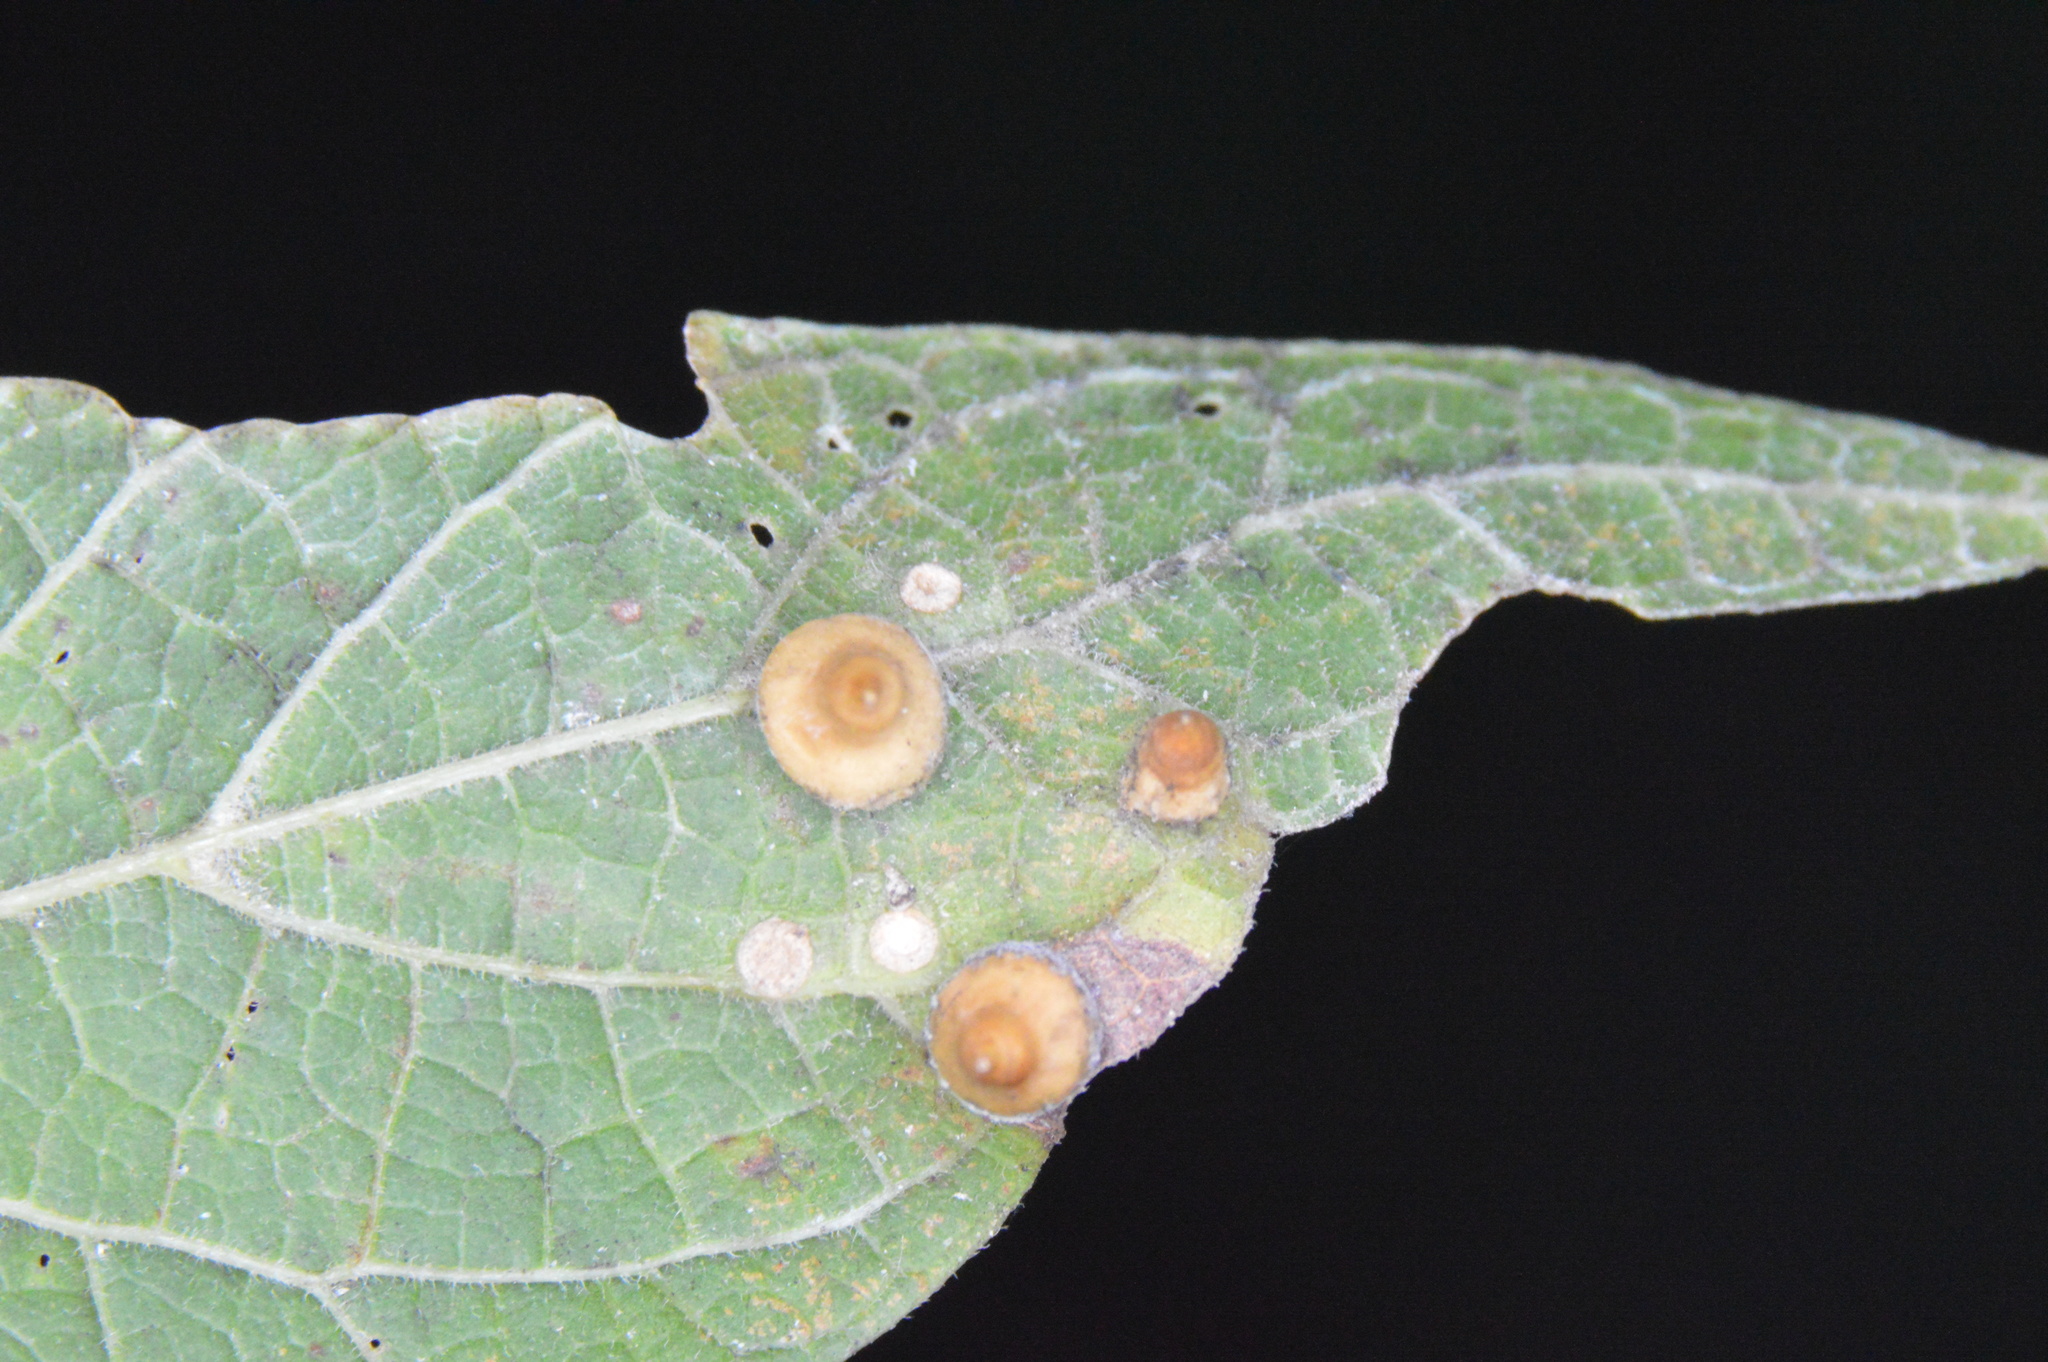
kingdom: Animalia
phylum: Arthropoda
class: Insecta
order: Diptera
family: Cecidomyiidae
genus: Celticecis
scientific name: Celticecis spiniformis
